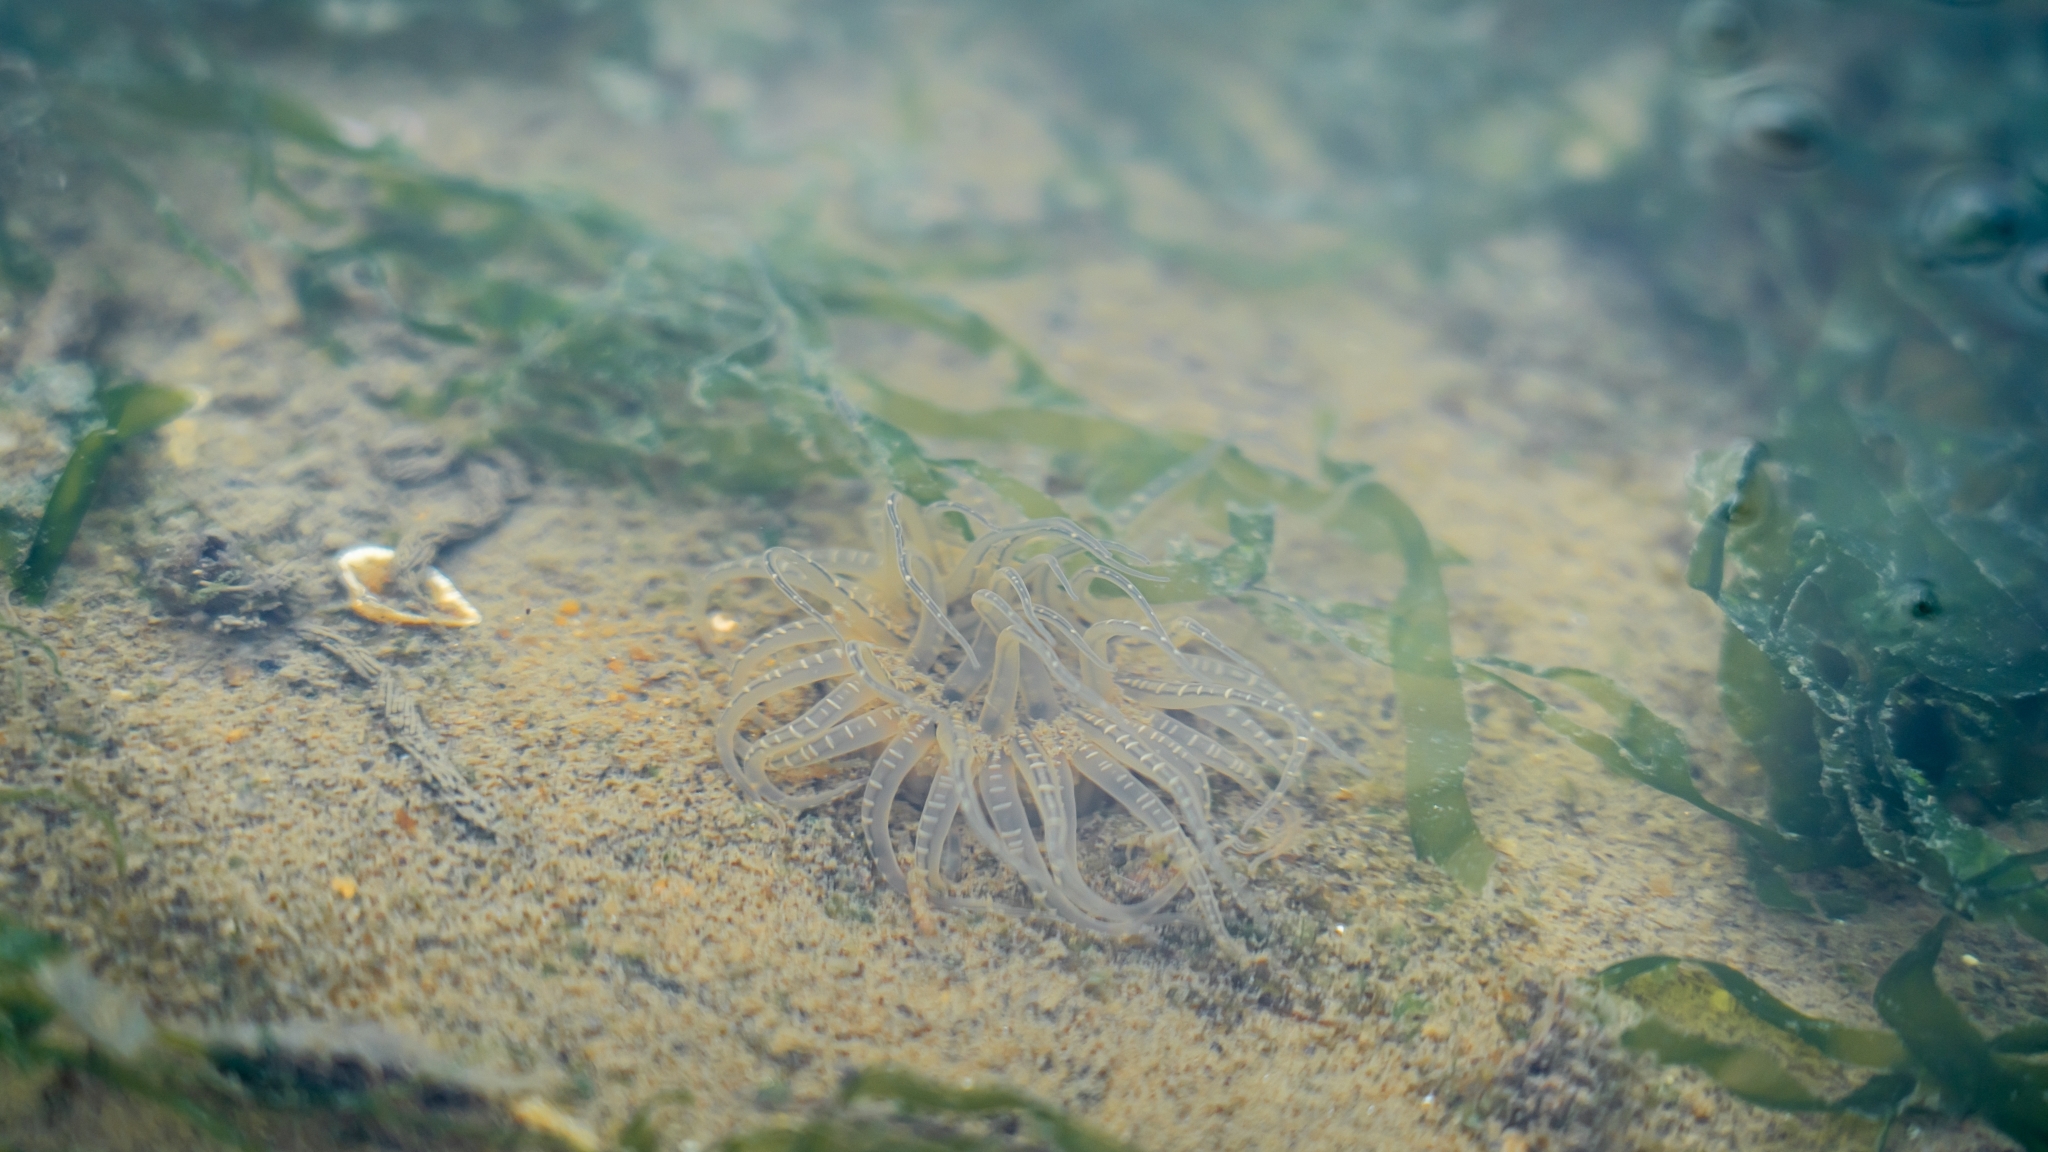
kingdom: Animalia
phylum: Cnidaria
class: Anthozoa
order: Actiniaria
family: Actiniidae
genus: Paracondylactis
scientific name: Paracondylactis singaporensis
